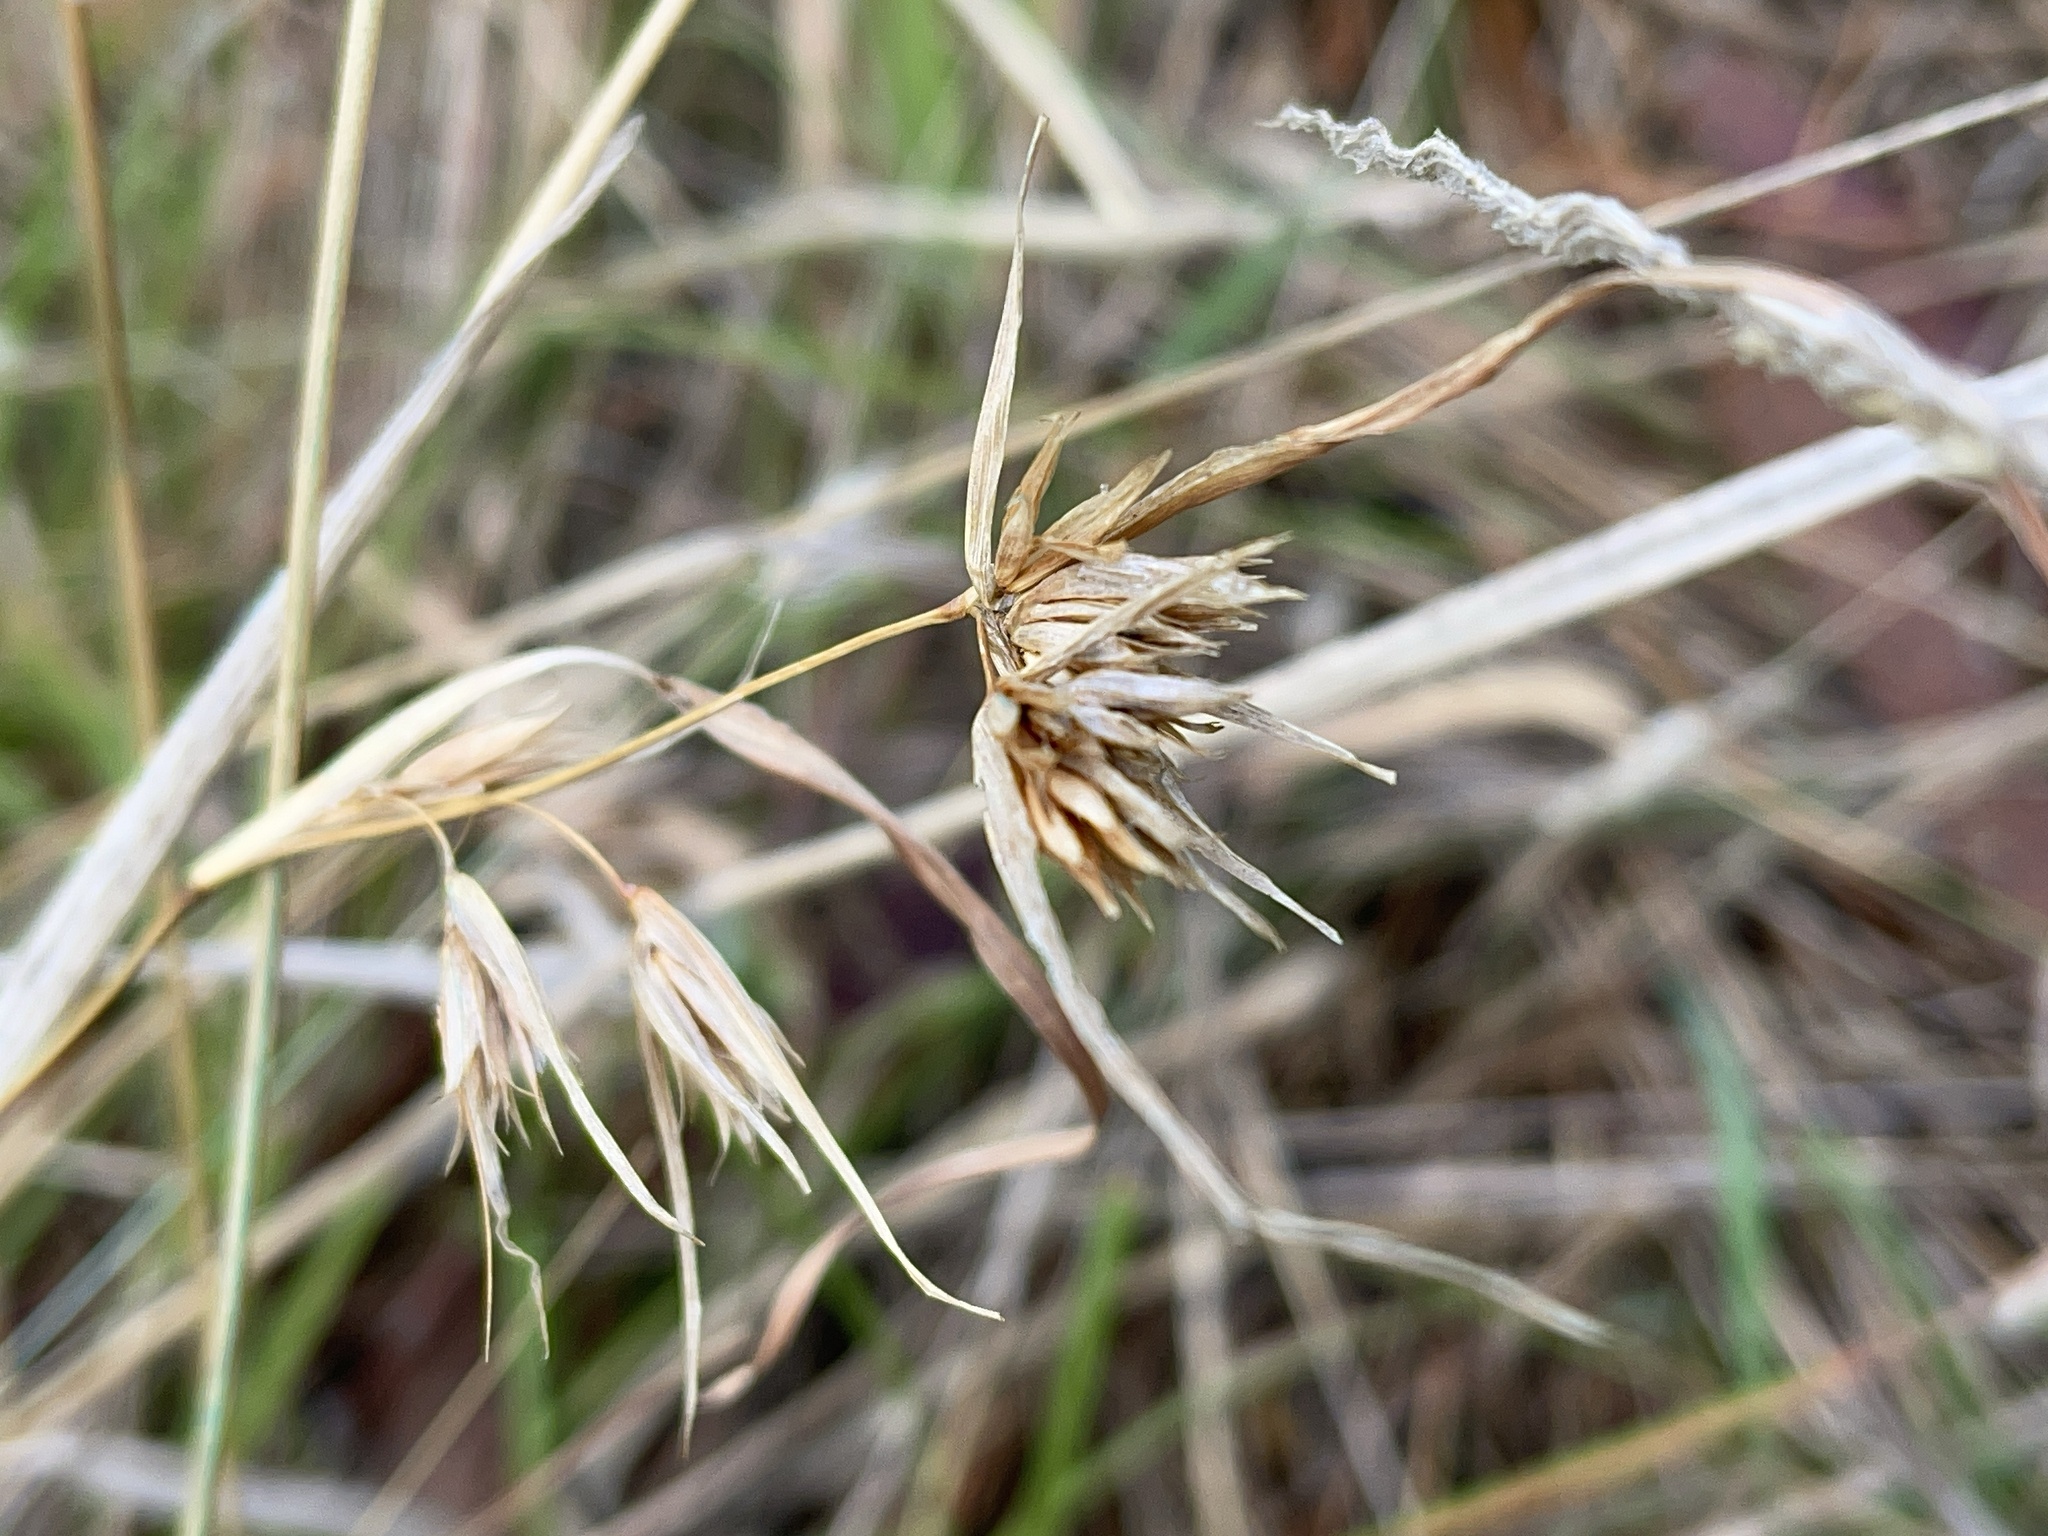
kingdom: Plantae
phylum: Tracheophyta
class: Liliopsida
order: Poales
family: Poaceae
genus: Themeda
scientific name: Themeda triandra
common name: Kangaroo grass
